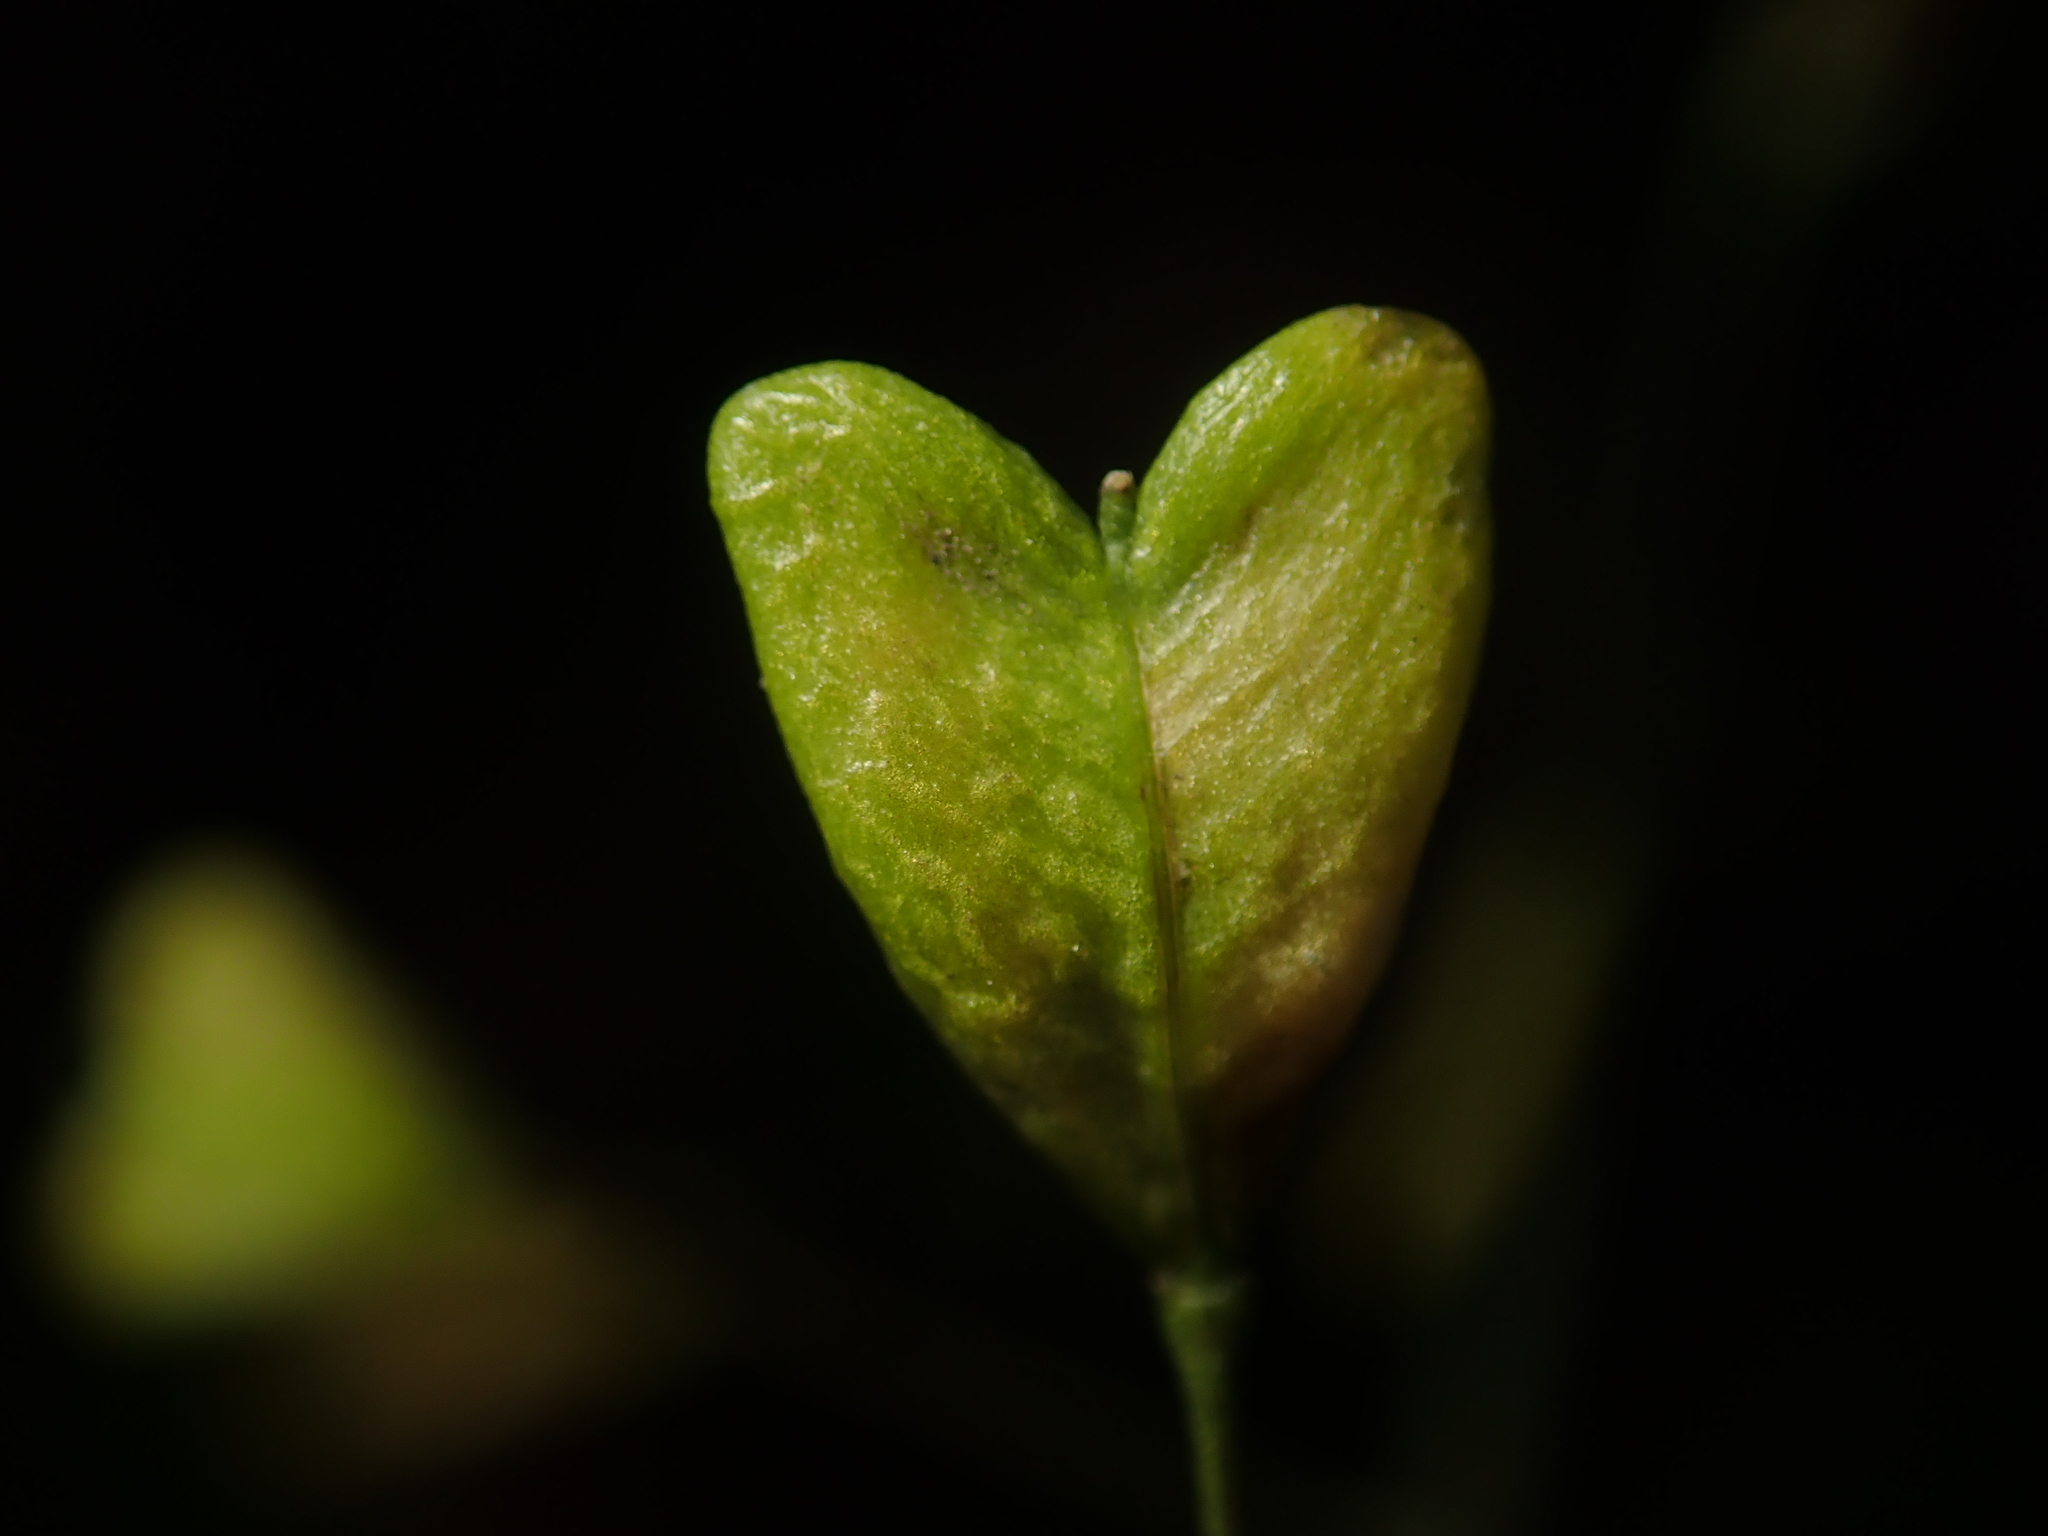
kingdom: Plantae
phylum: Tracheophyta
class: Magnoliopsida
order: Brassicales
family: Brassicaceae
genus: Capsella
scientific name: Capsella bursa-pastoris
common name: Shepherd's purse
